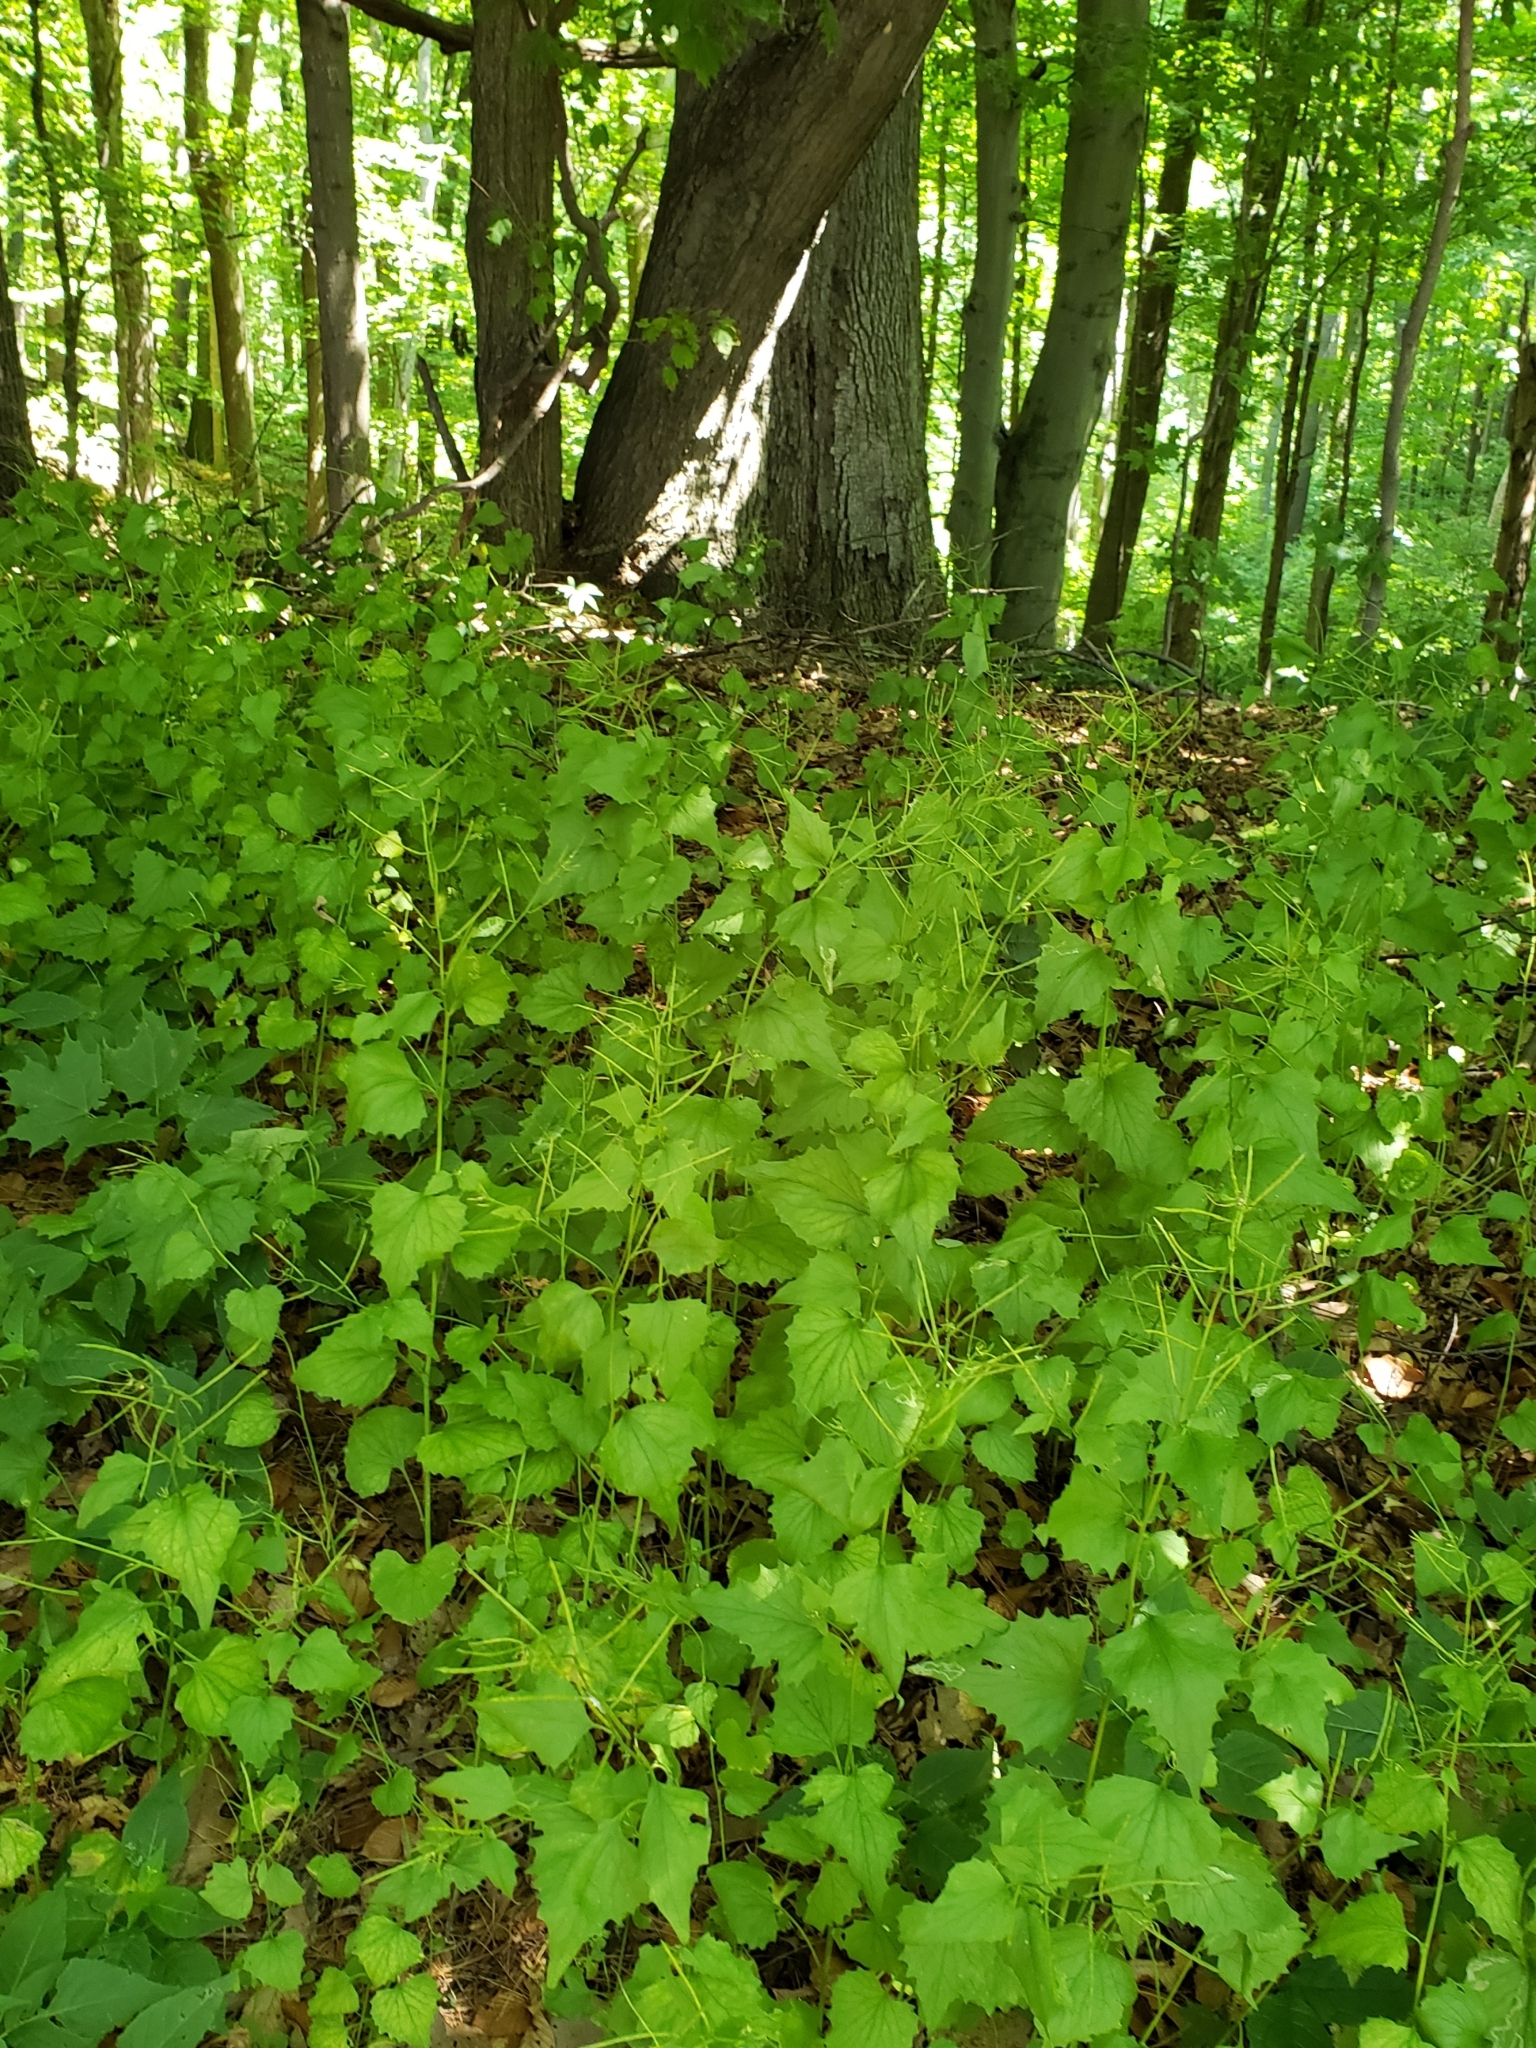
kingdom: Plantae
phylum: Tracheophyta
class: Magnoliopsida
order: Brassicales
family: Brassicaceae
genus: Alliaria
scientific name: Alliaria petiolata
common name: Garlic mustard
